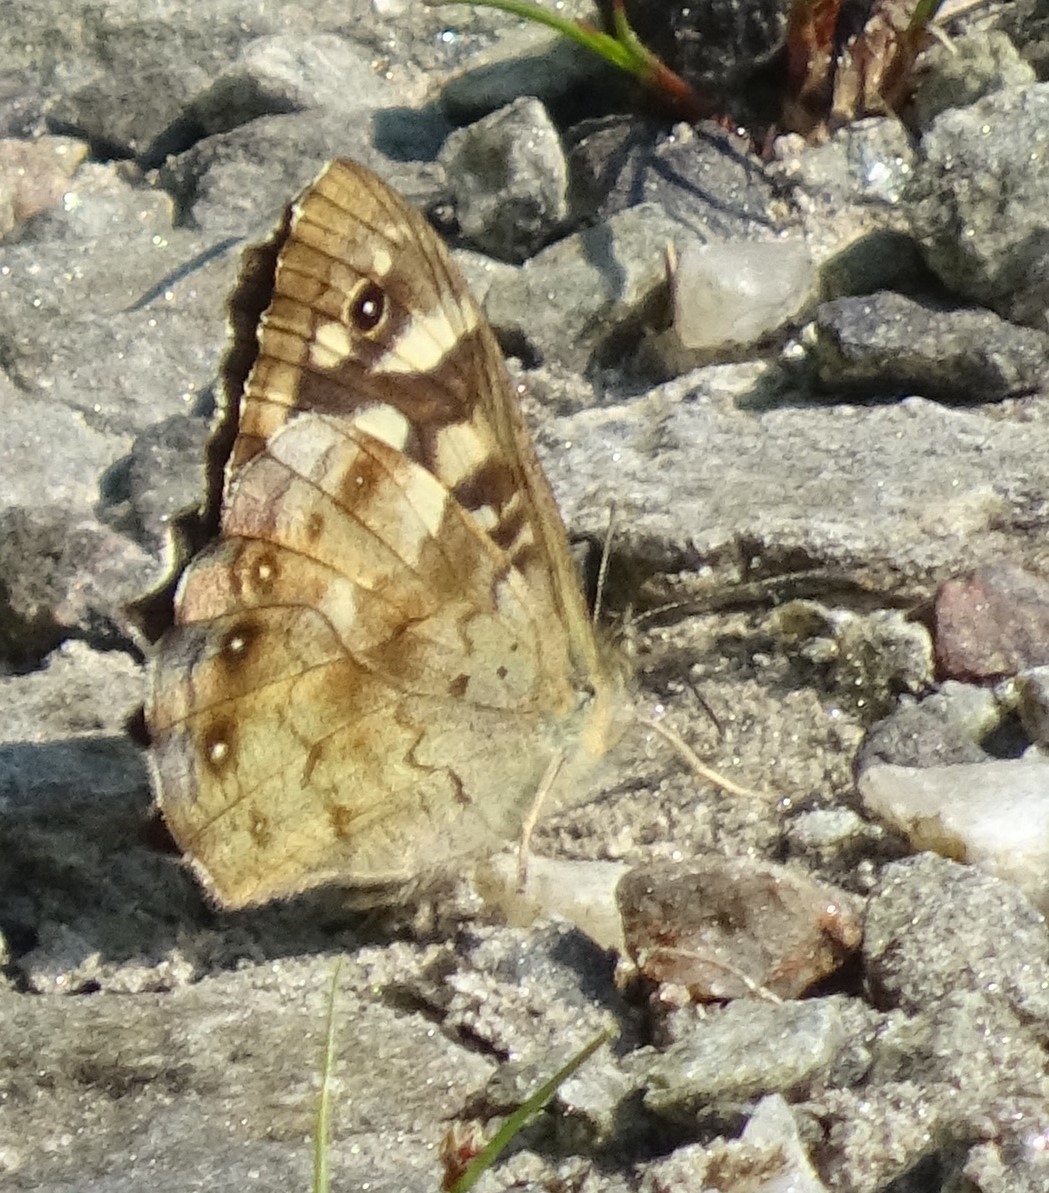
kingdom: Animalia
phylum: Arthropoda
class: Insecta
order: Lepidoptera
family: Nymphalidae
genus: Pararge
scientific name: Pararge aegeria
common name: Speckled wood
